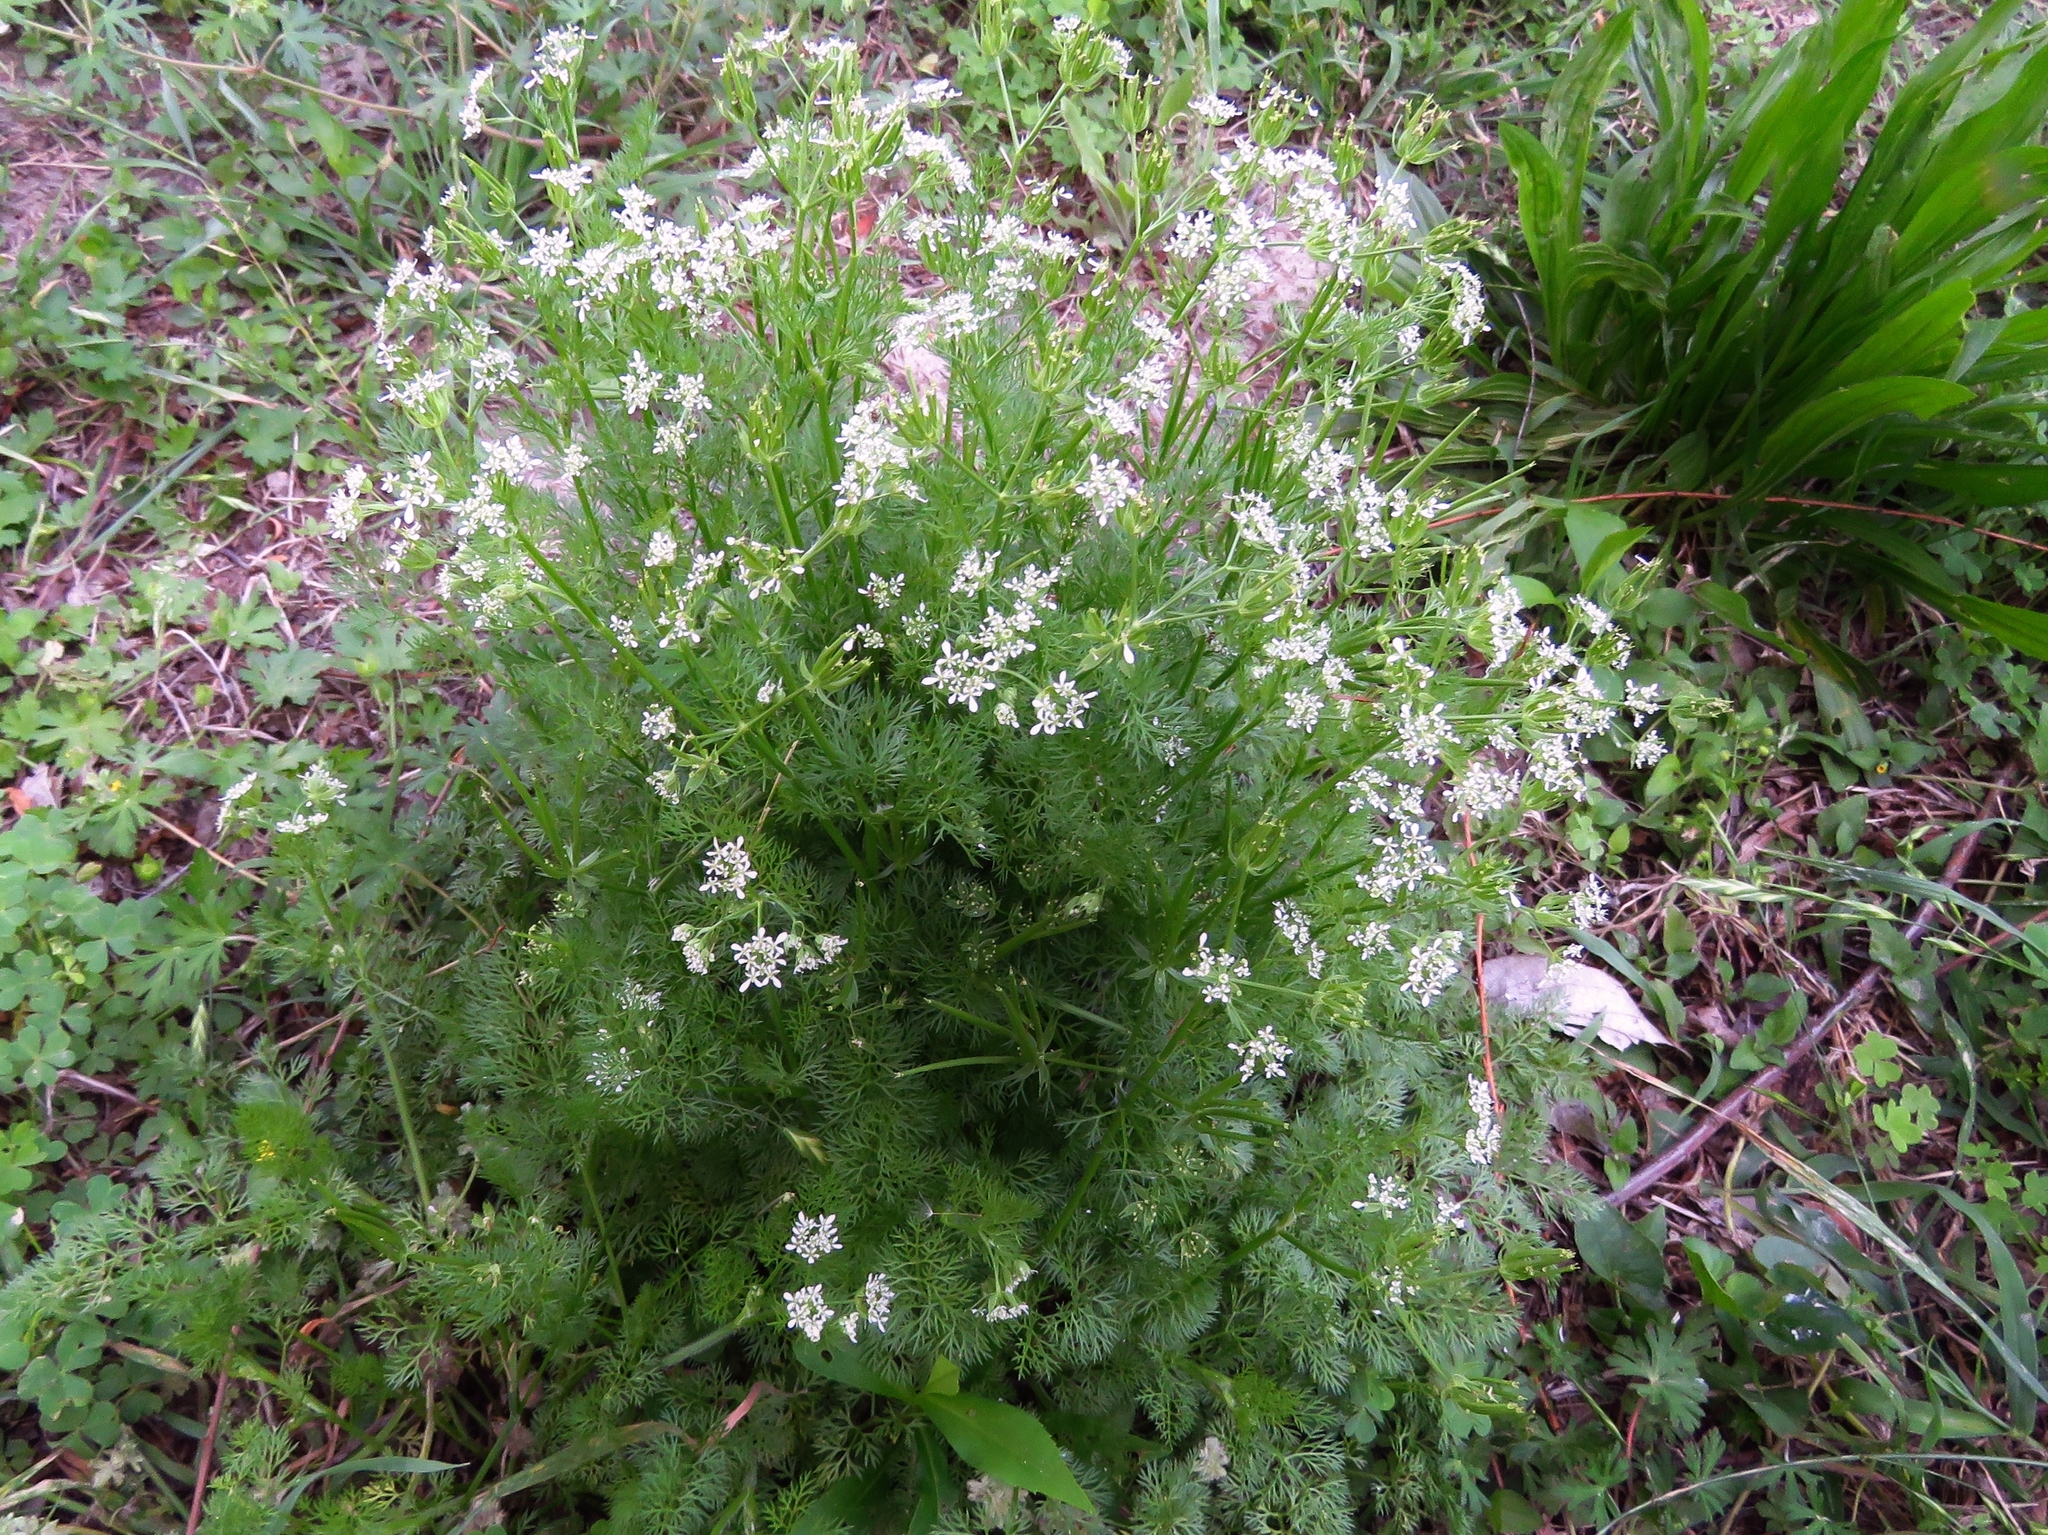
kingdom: Plantae
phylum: Tracheophyta
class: Magnoliopsida
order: Apiales
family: Apiaceae
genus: Scandix
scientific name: Scandix pecten-veneris
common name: Shepherd's-needle
